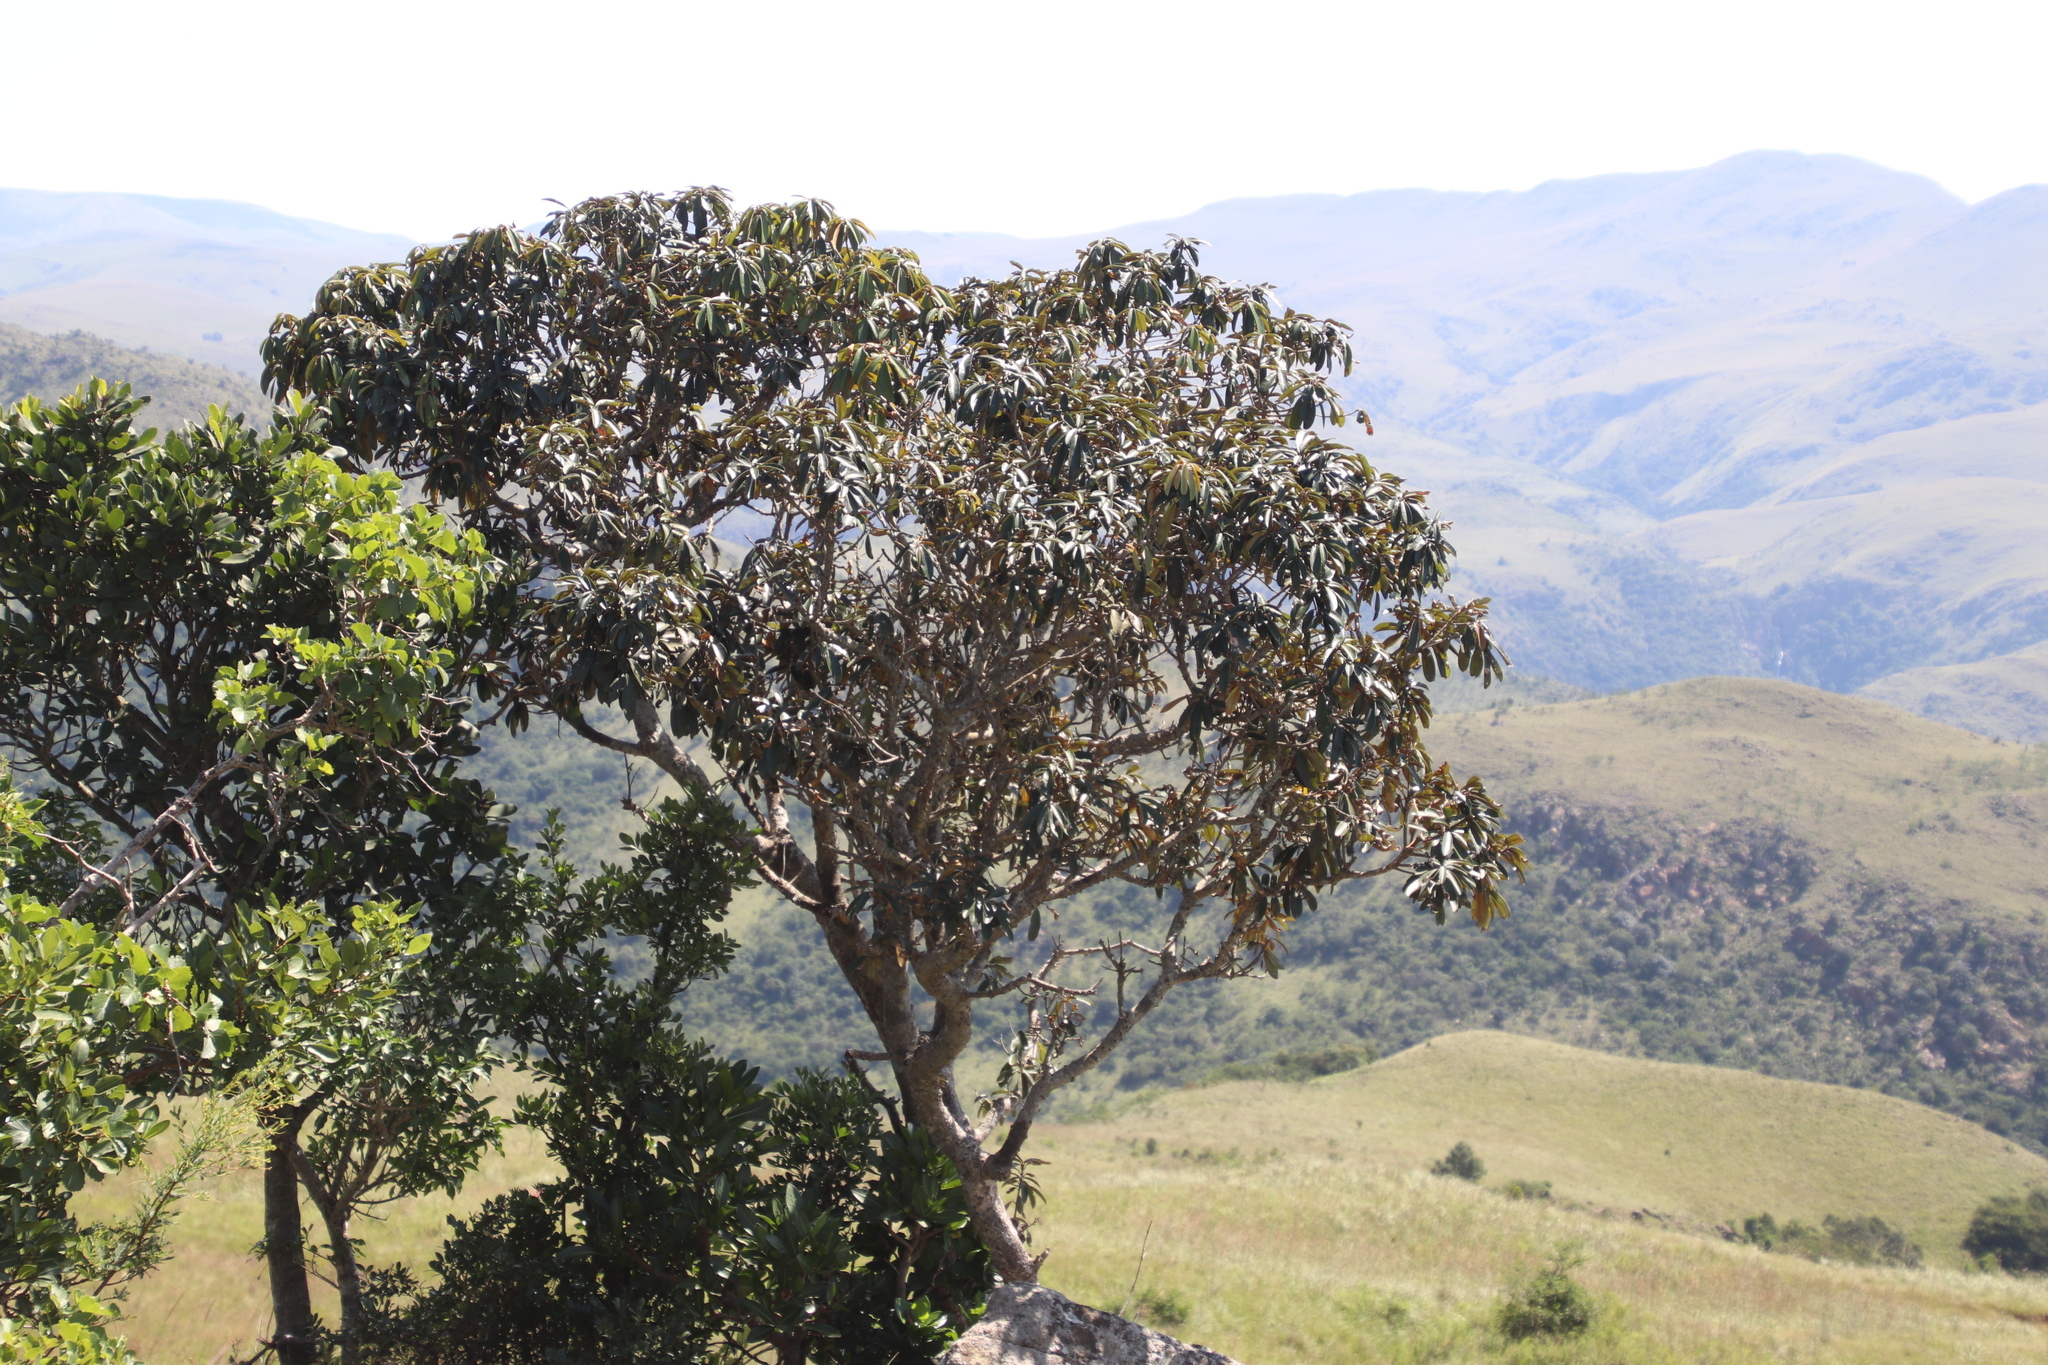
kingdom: Plantae
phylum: Tracheophyta
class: Magnoliopsida
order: Ericales
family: Sapotaceae
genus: Englerophytum
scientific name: Englerophytum magalismontanum
